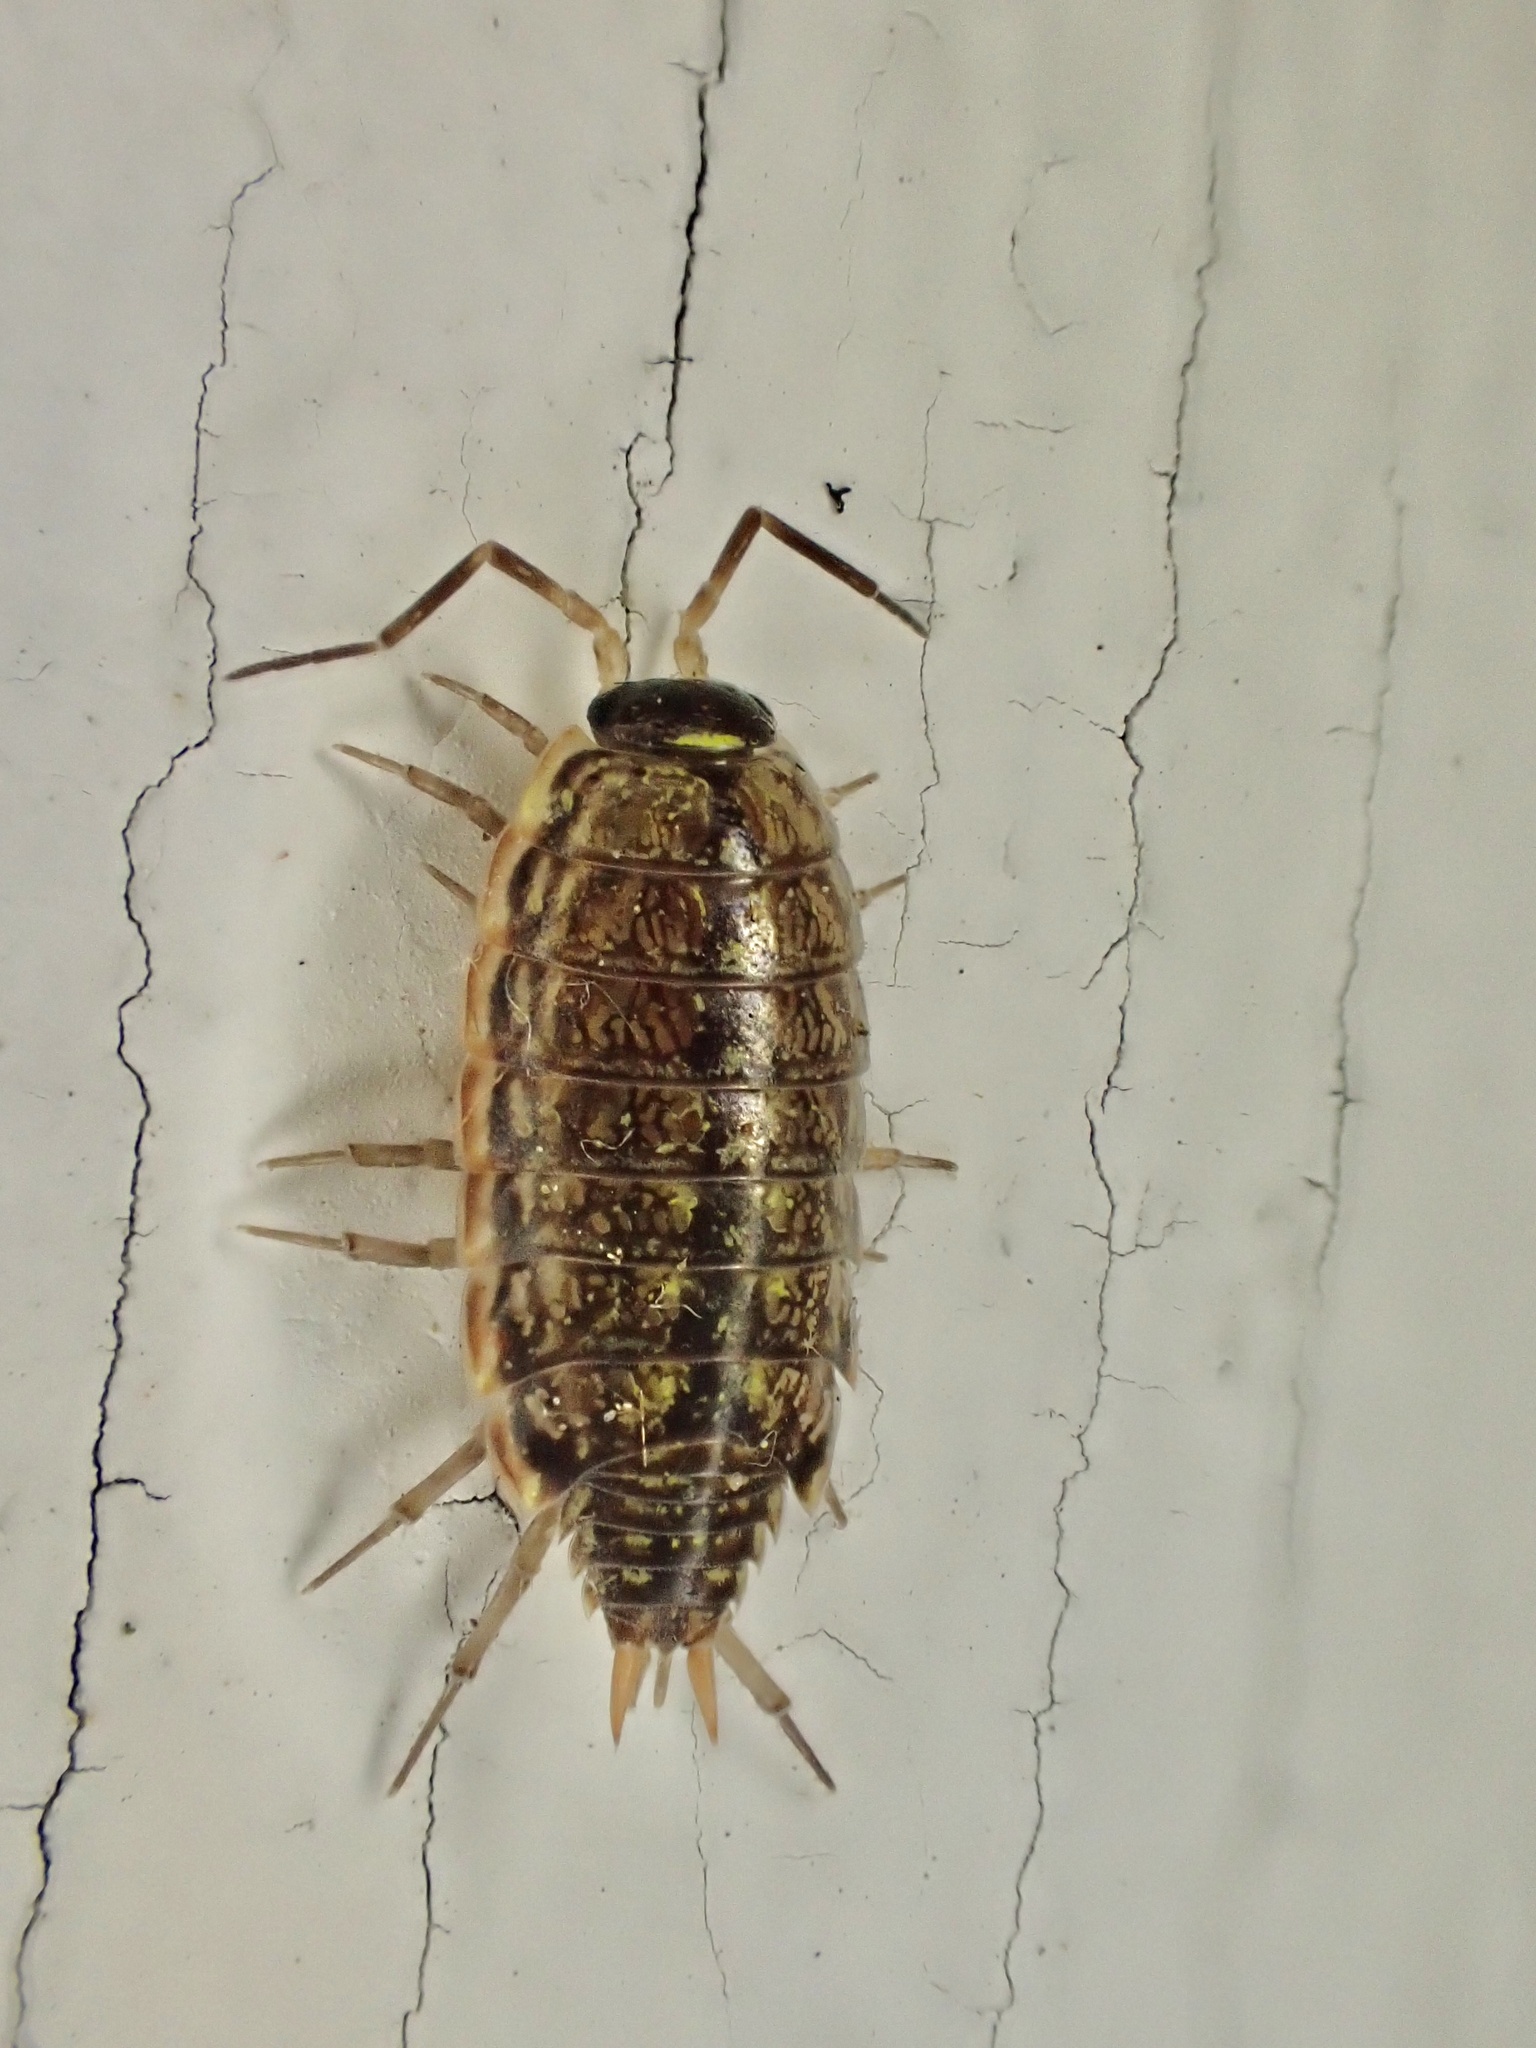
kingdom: Animalia
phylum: Arthropoda
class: Malacostraca
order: Isopoda
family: Philosciidae
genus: Philoscia
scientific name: Philoscia muscorum
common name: Common striped woodlouse
